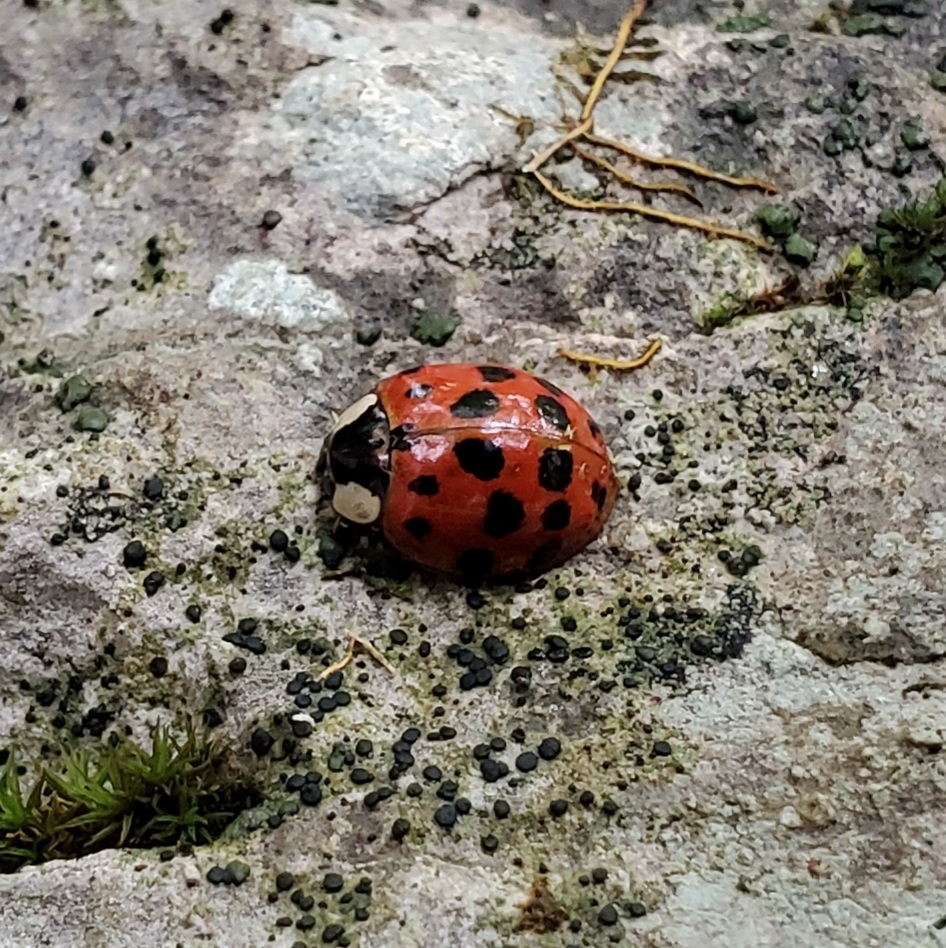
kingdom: Animalia
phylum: Arthropoda
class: Insecta
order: Coleoptera
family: Coccinellidae
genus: Harmonia
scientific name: Harmonia axyridis
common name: Harlequin ladybird
